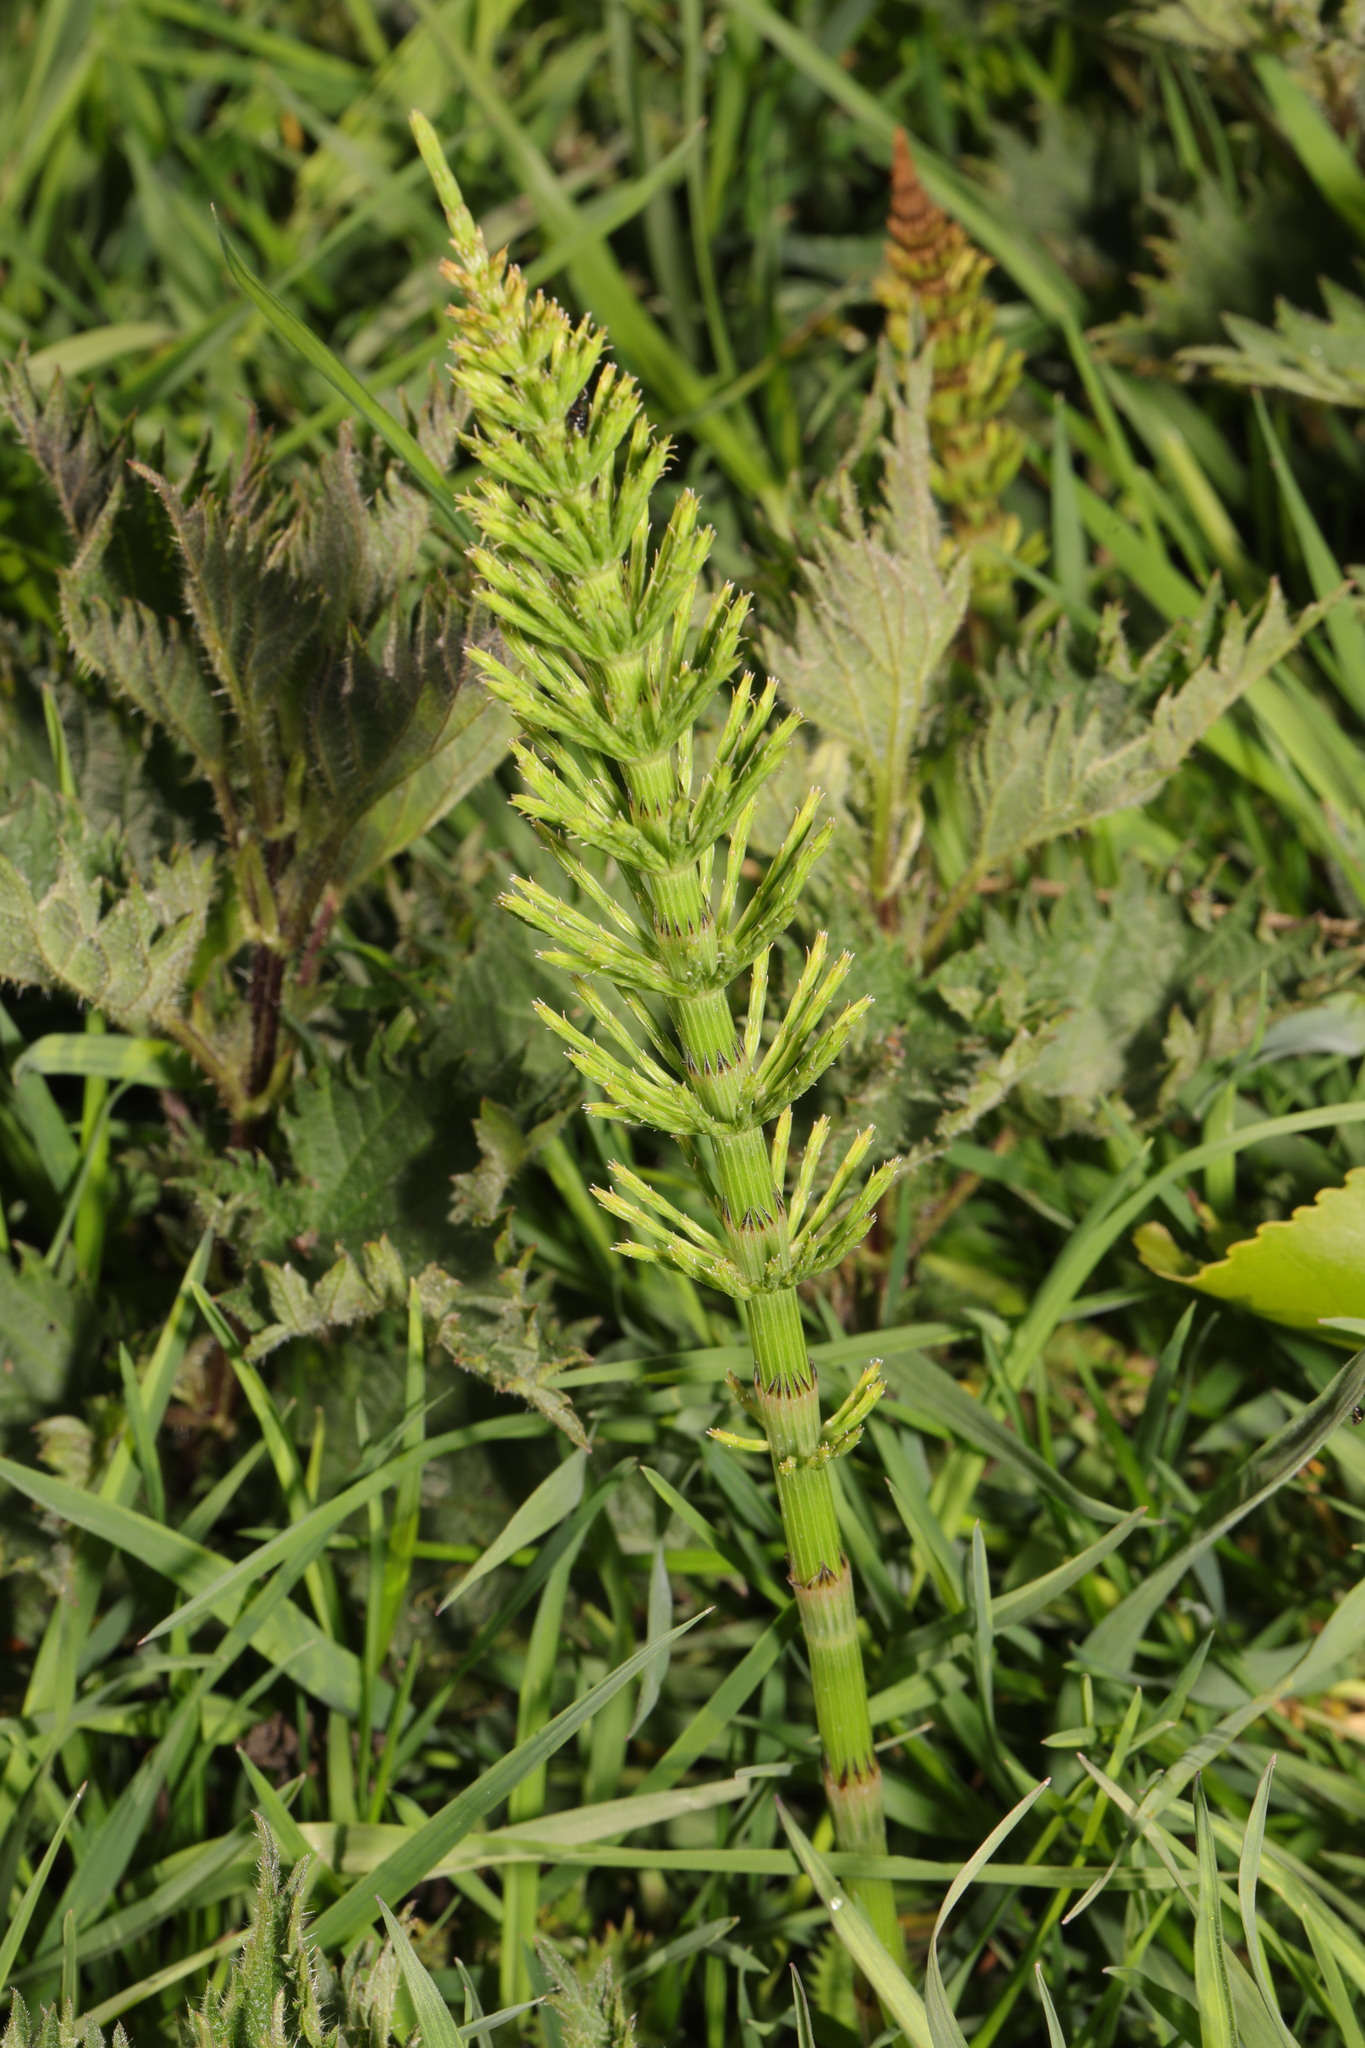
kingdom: Plantae
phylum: Tracheophyta
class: Polypodiopsida
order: Equisetales
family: Equisetaceae
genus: Equisetum
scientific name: Equisetum arvense
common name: Field horsetail
